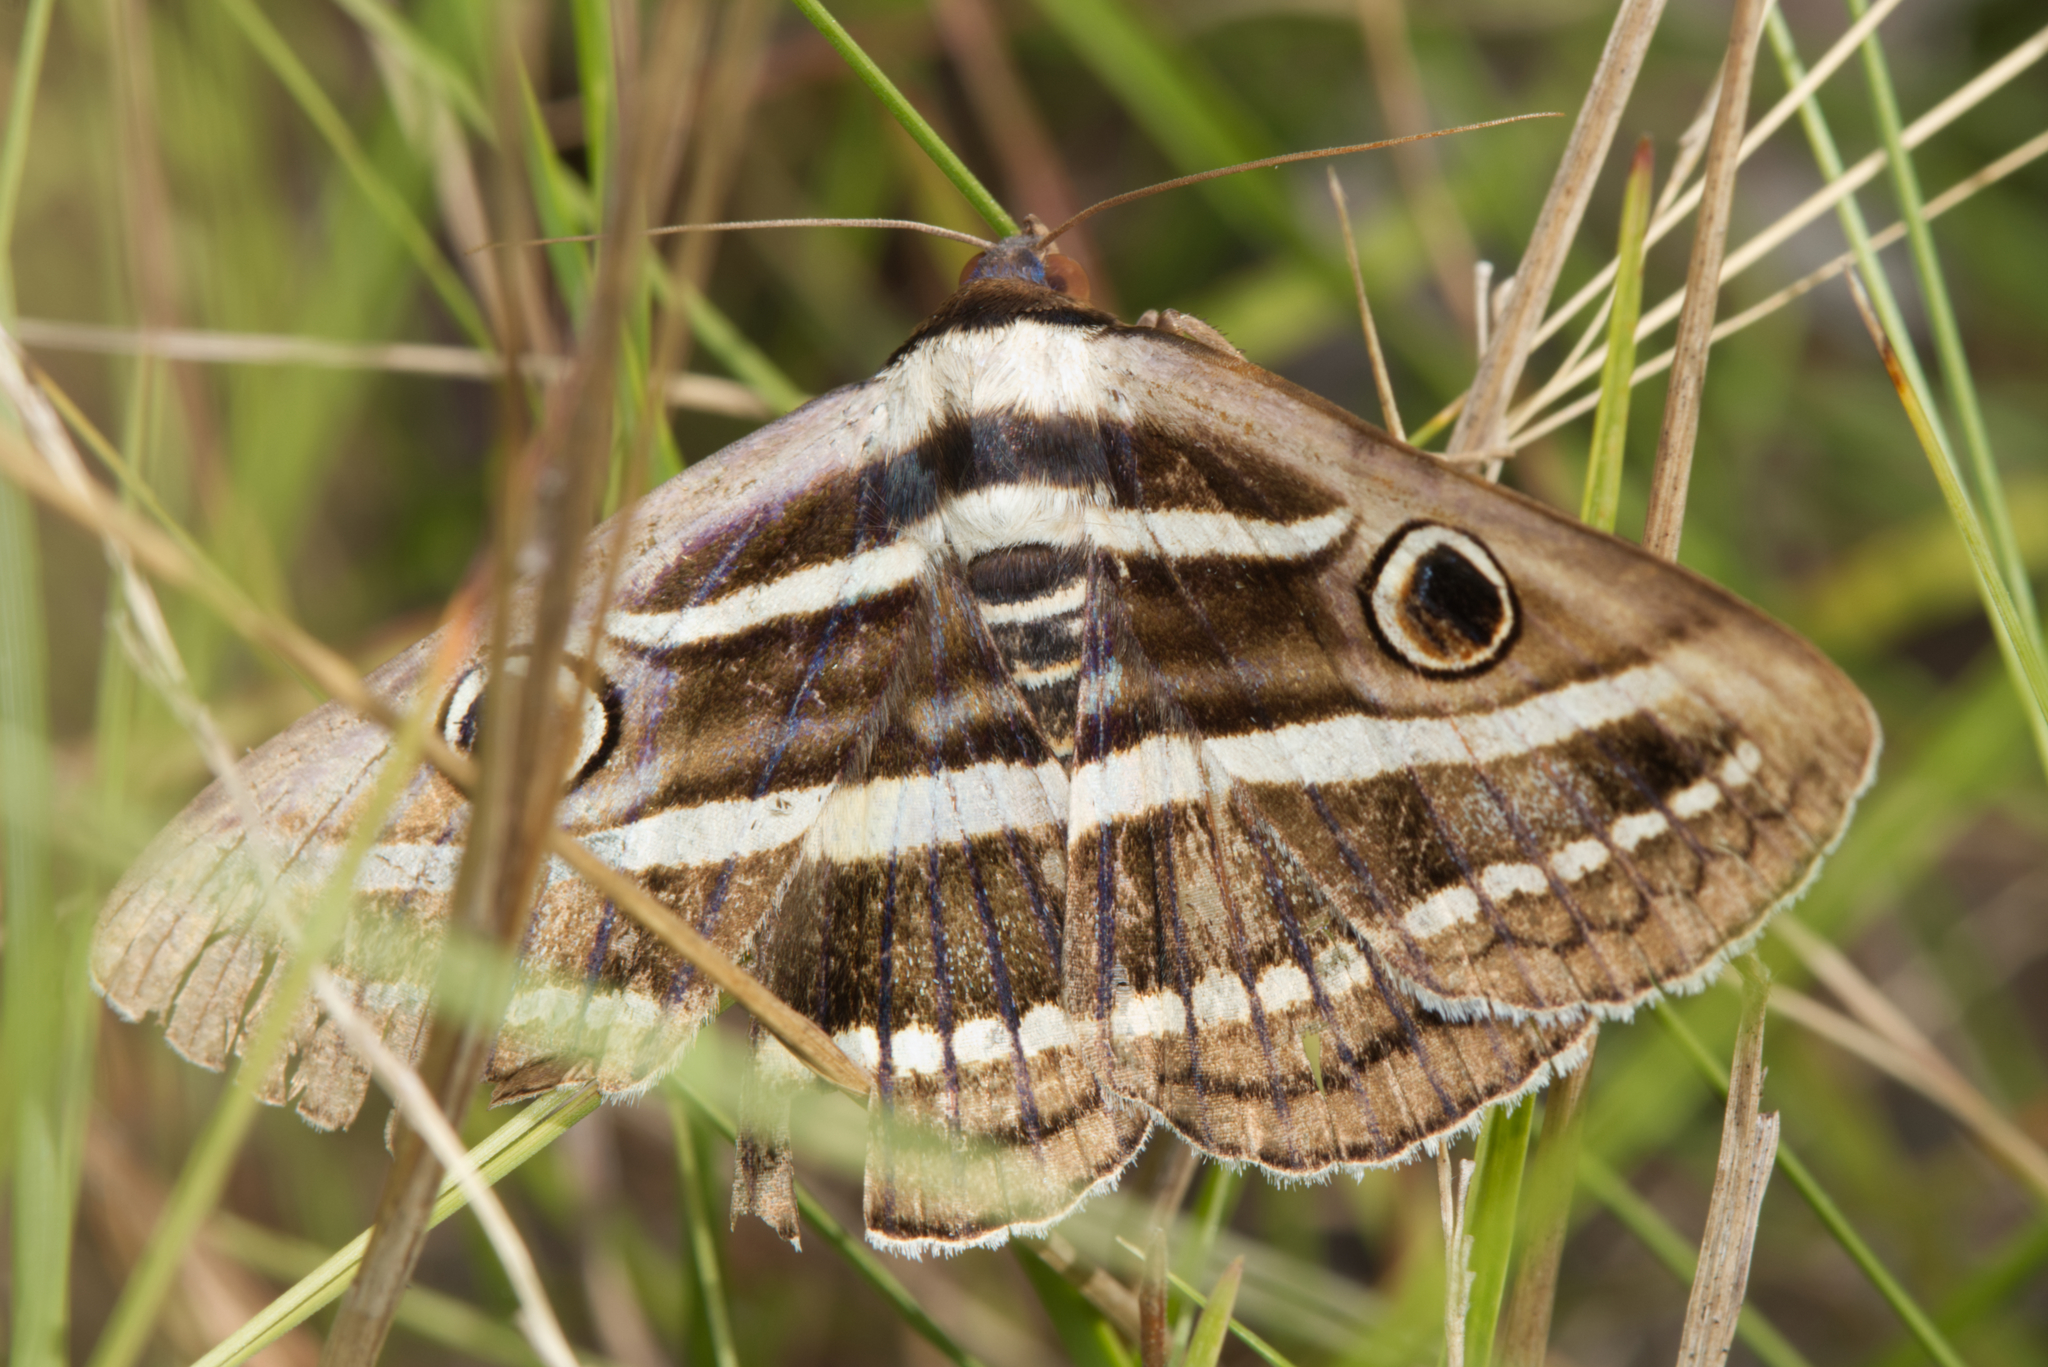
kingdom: Animalia
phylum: Arthropoda
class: Insecta
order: Lepidoptera
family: Erebidae
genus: Donuca
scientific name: Donuca orbigera
